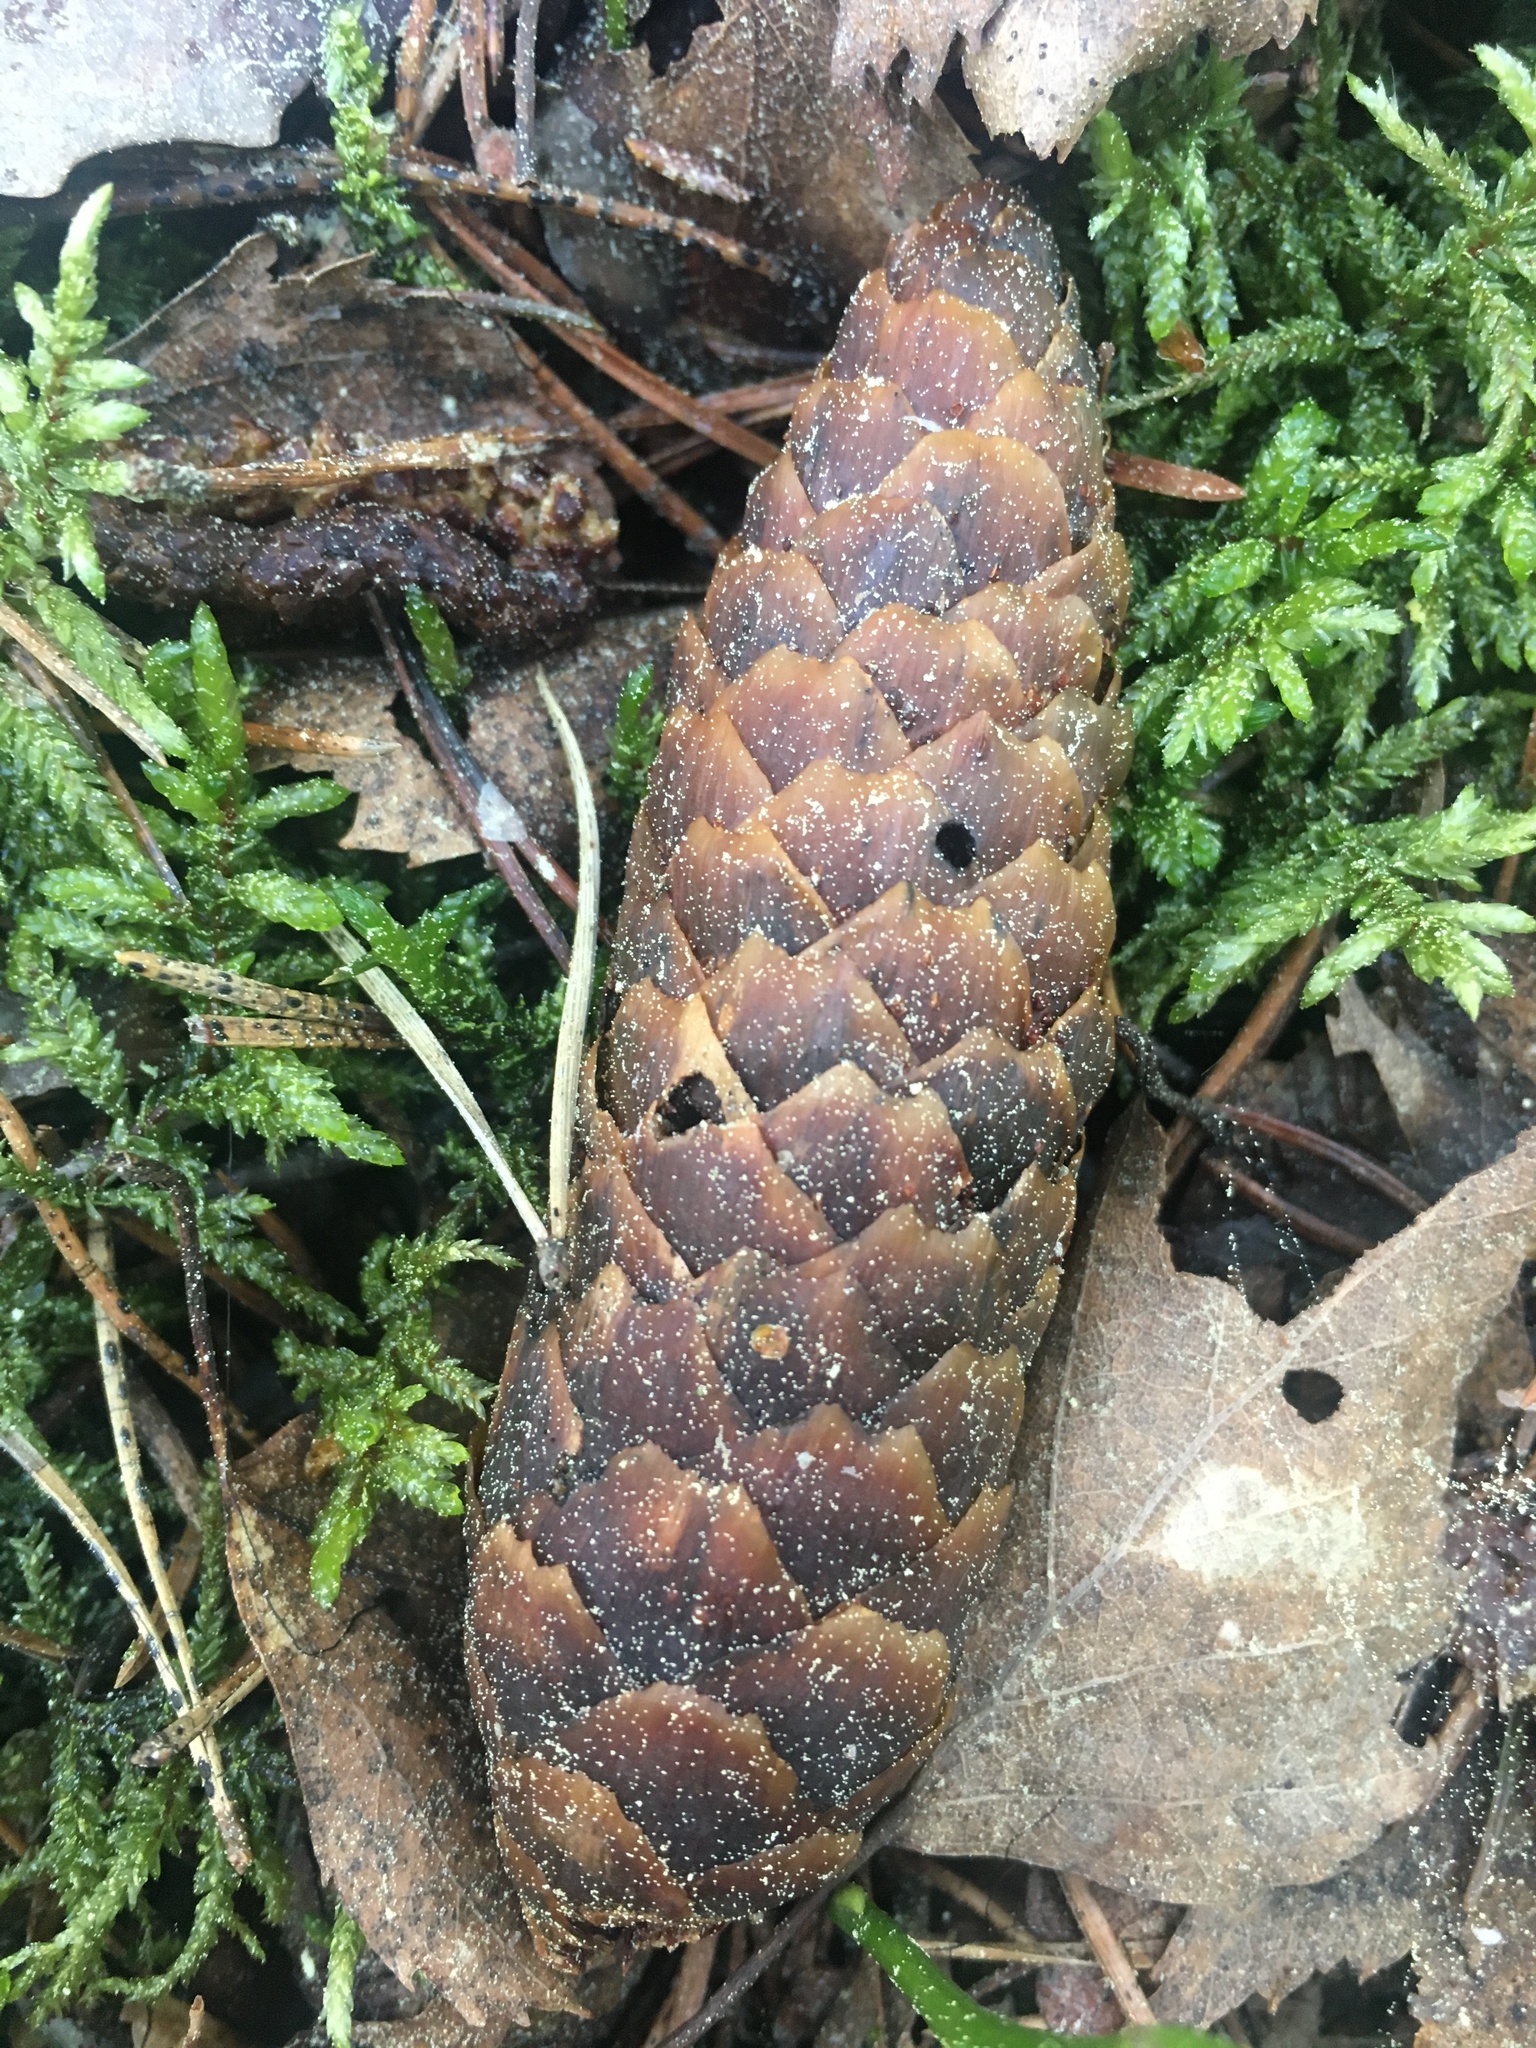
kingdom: Plantae
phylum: Tracheophyta
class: Pinopsida
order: Pinales
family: Pinaceae
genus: Picea
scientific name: Picea abies
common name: Norway spruce
